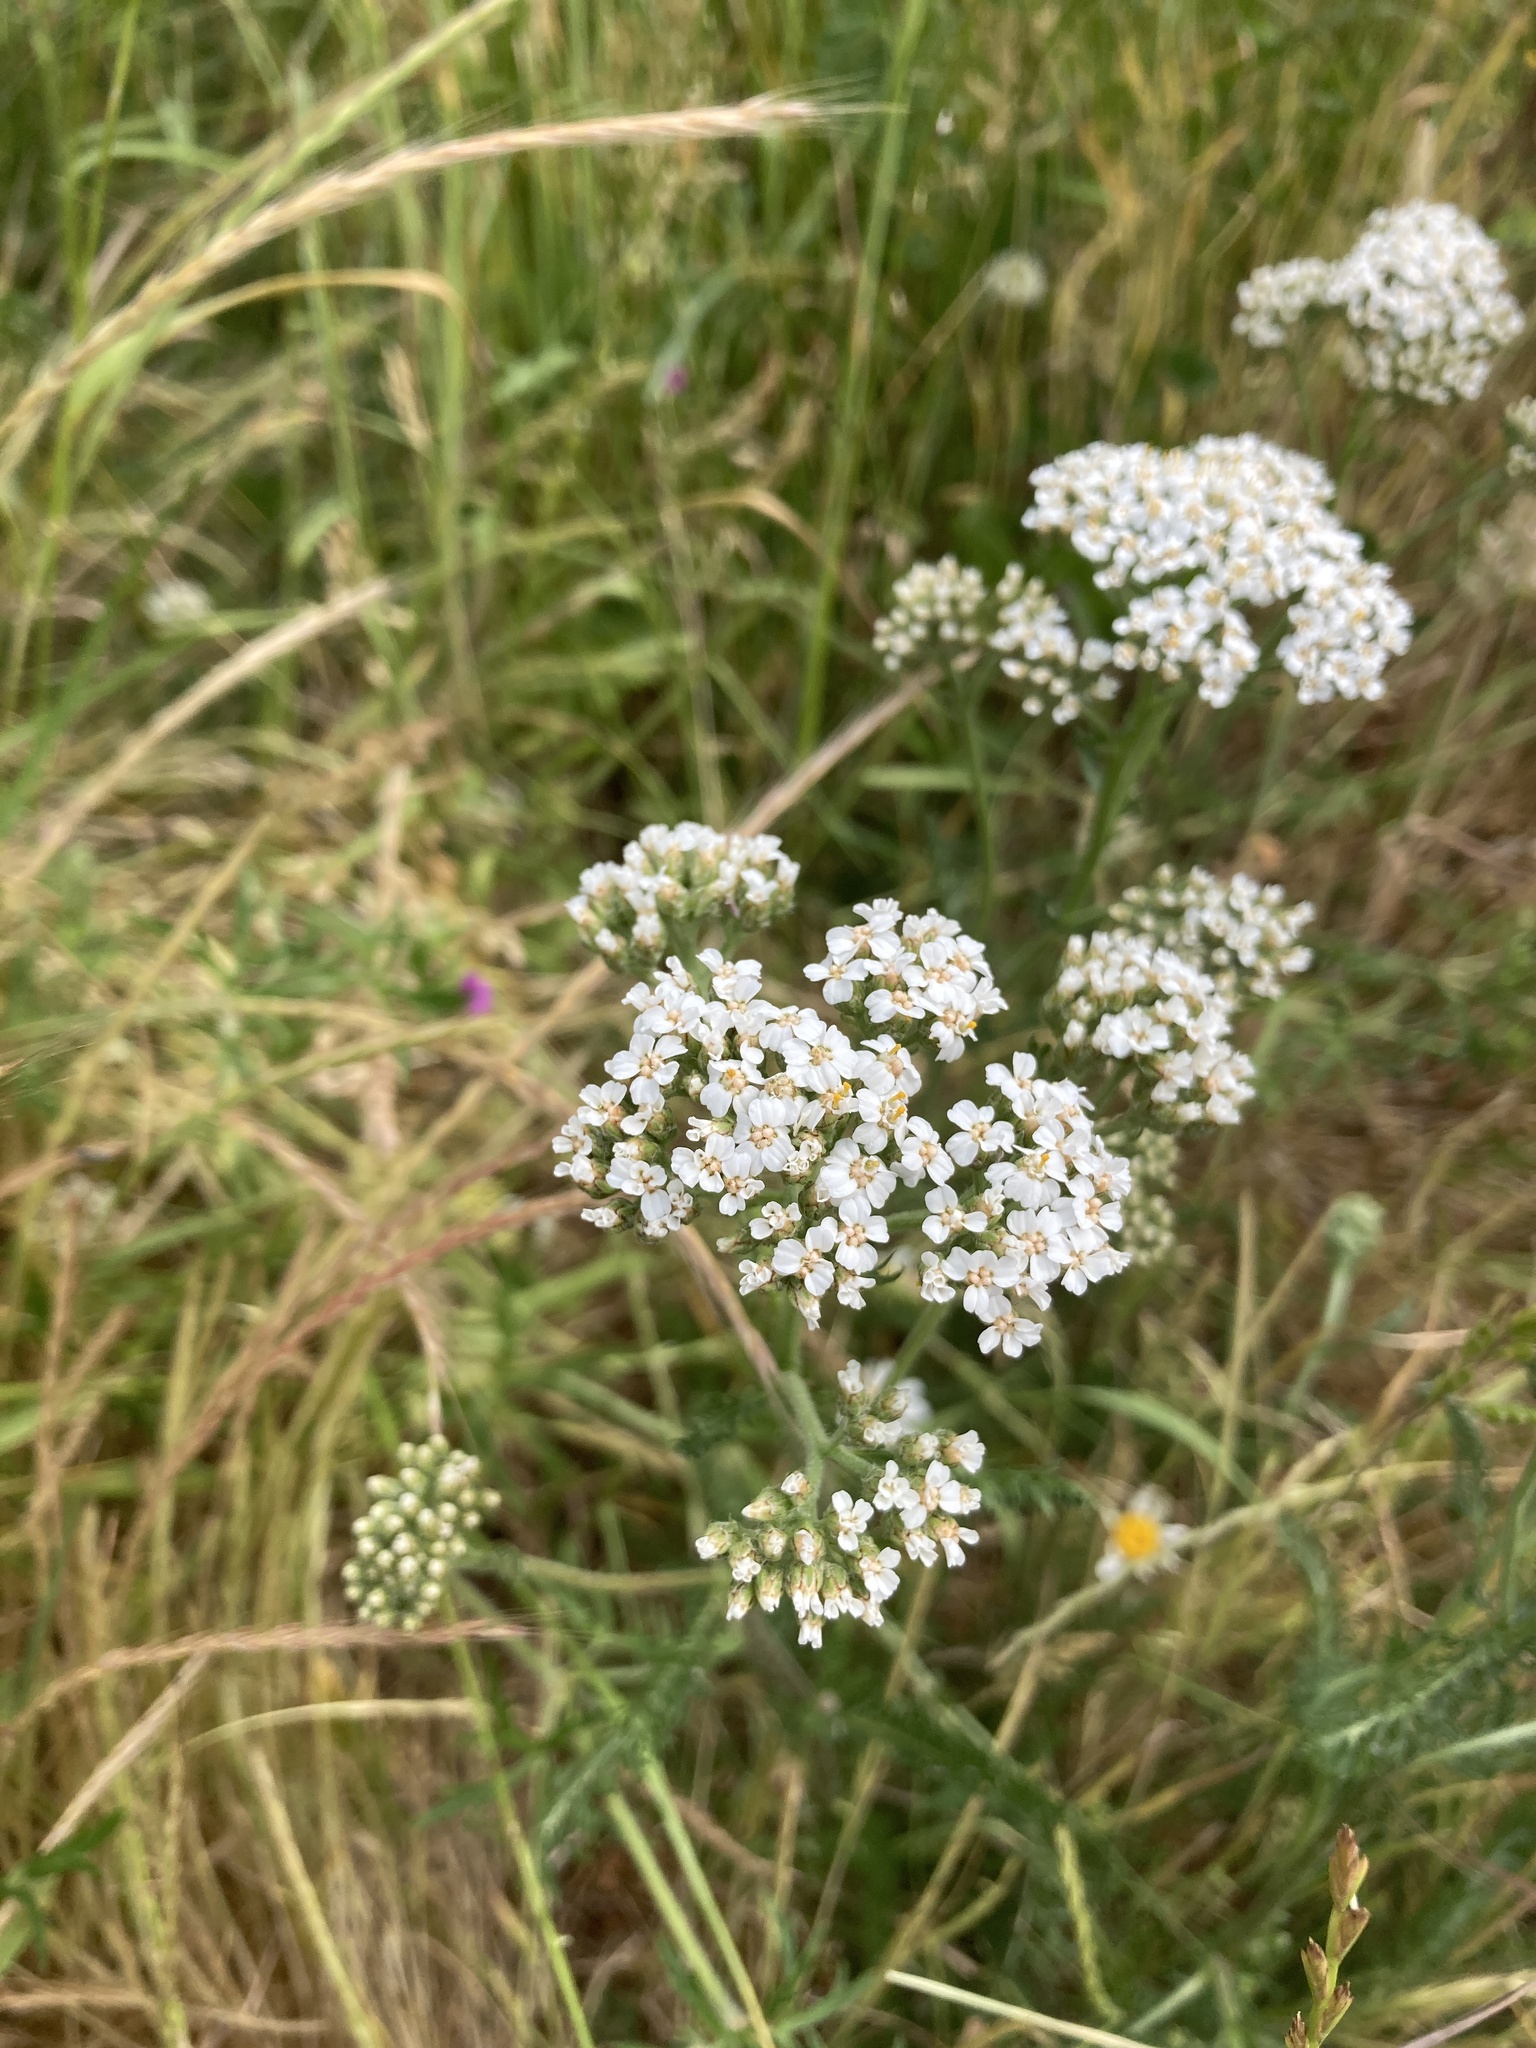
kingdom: Plantae
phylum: Tracheophyta
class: Magnoliopsida
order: Asterales
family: Asteraceae
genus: Achillea
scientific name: Achillea millefolium
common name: Yarrow
